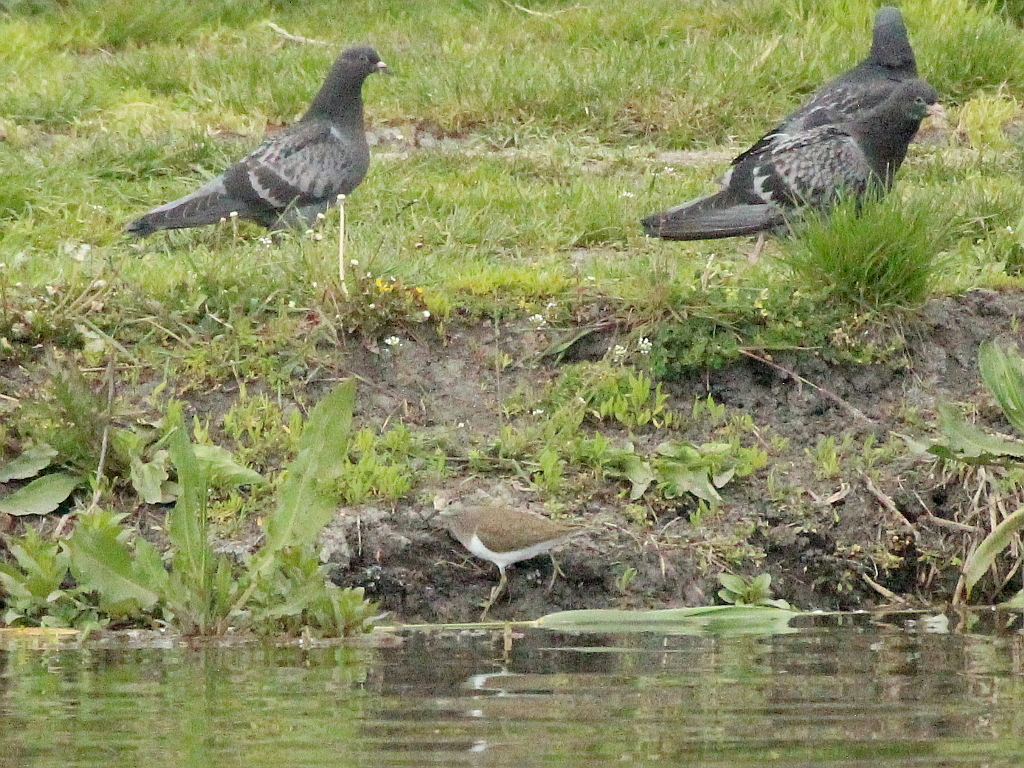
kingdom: Animalia
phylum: Chordata
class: Aves
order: Charadriiformes
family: Scolopacidae
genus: Actitis
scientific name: Actitis hypoleucos
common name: Common sandpiper
